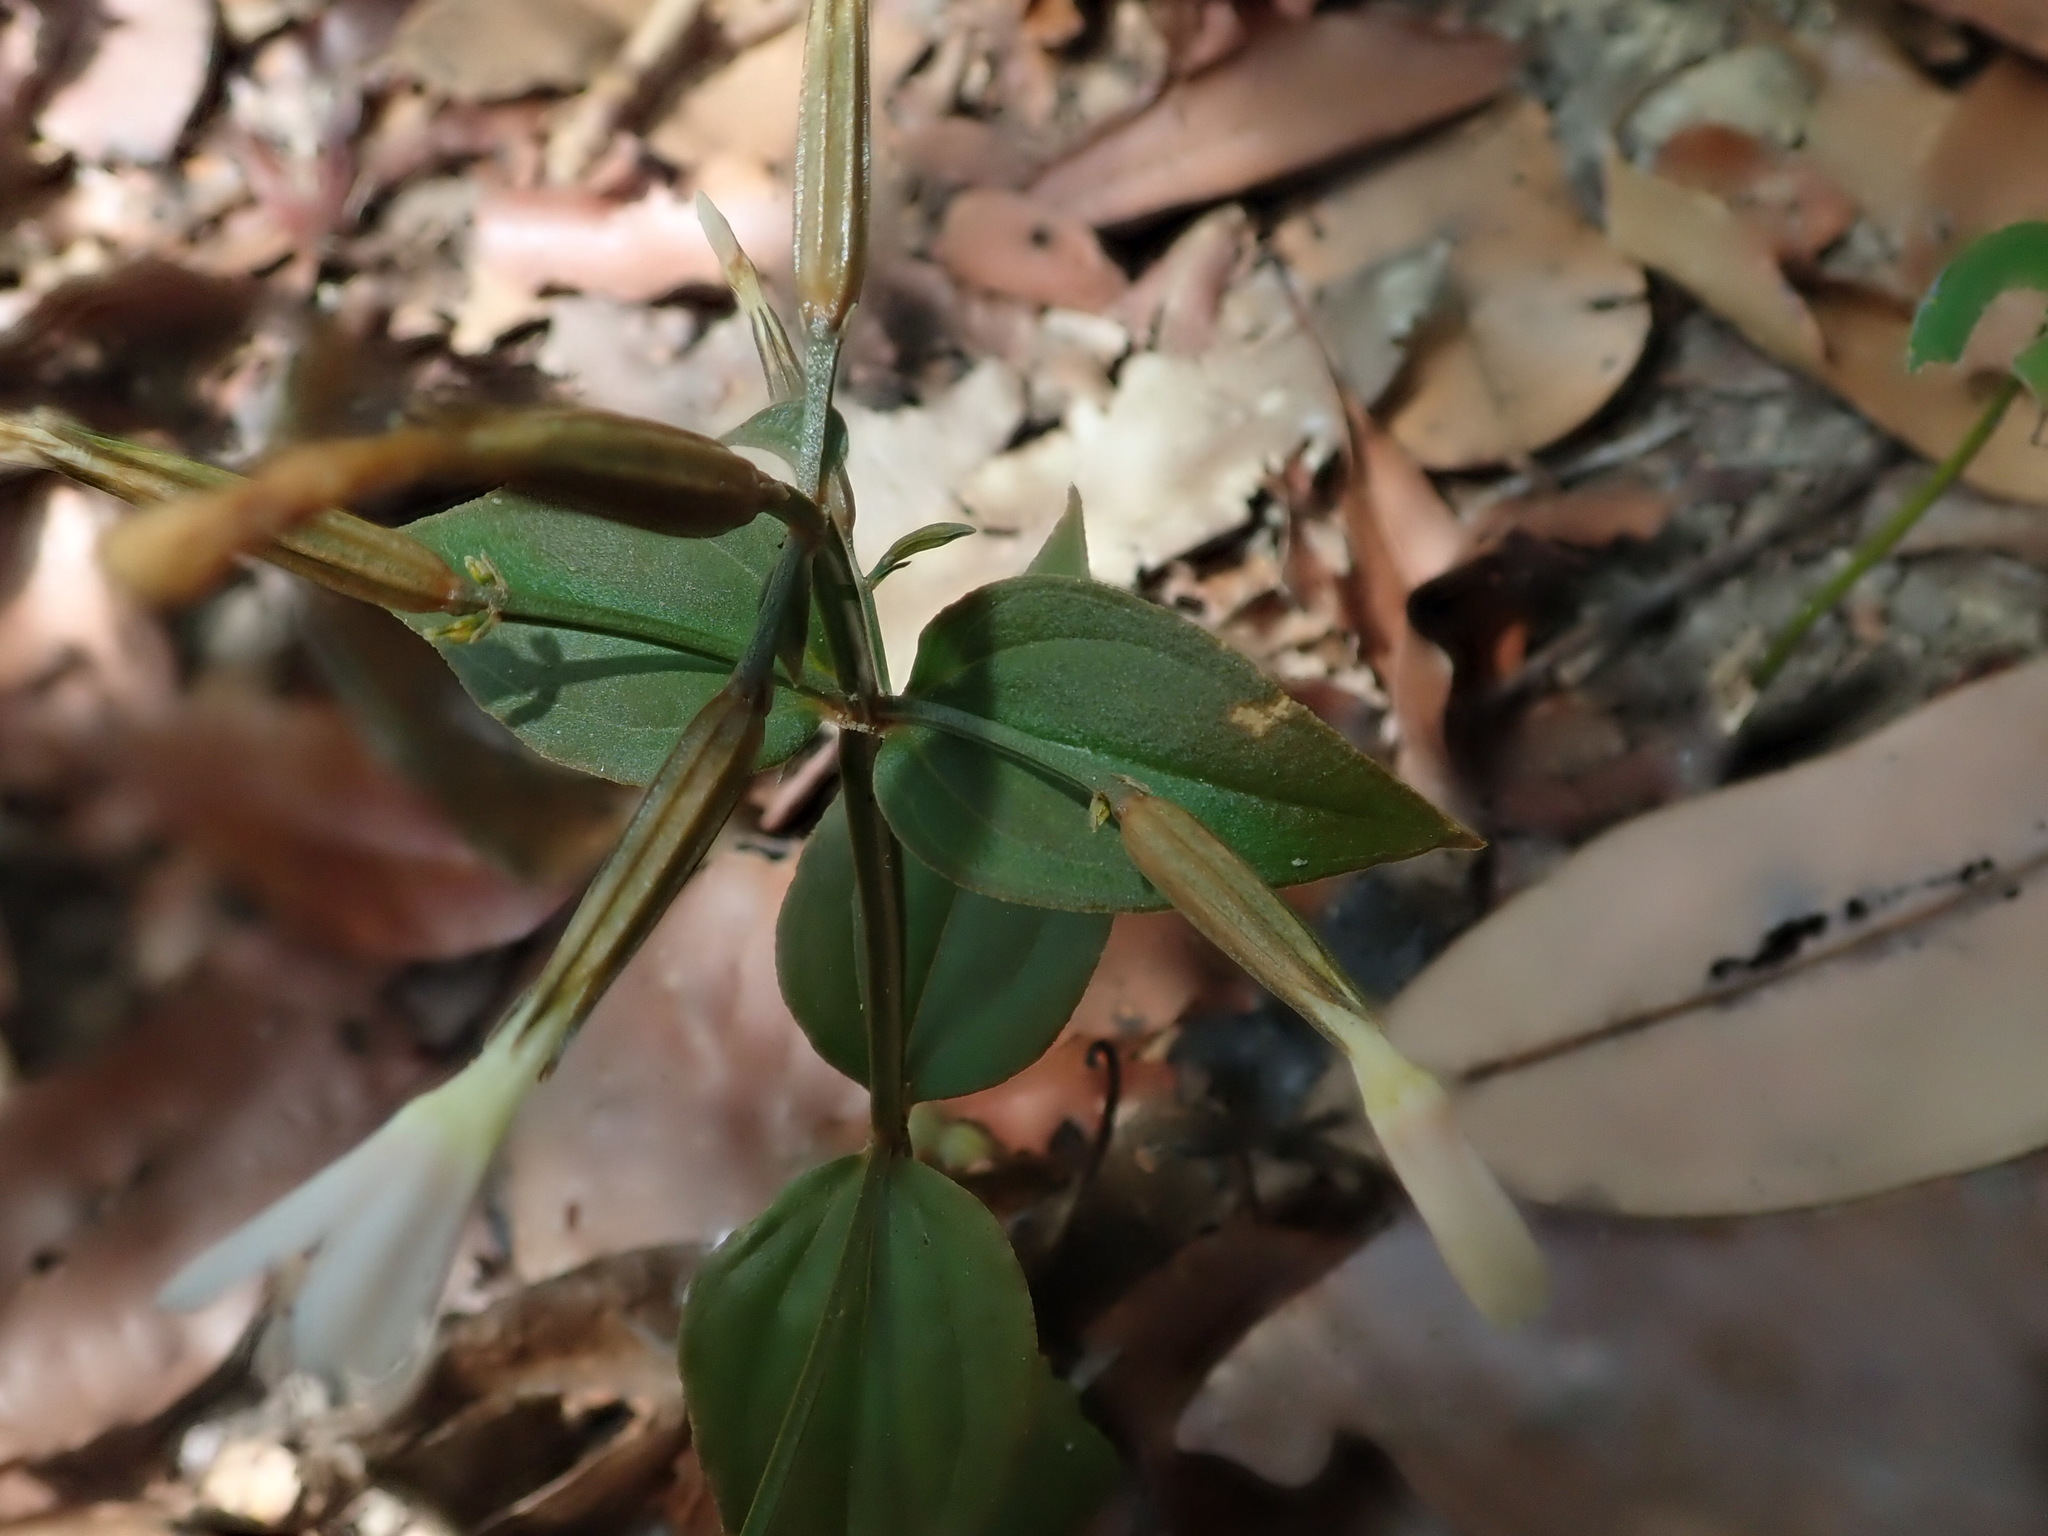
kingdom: Plantae
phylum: Tracheophyta
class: Magnoliopsida
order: Gentianales
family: Gentianaceae
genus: Canscora
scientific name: Canscora andrographioides
